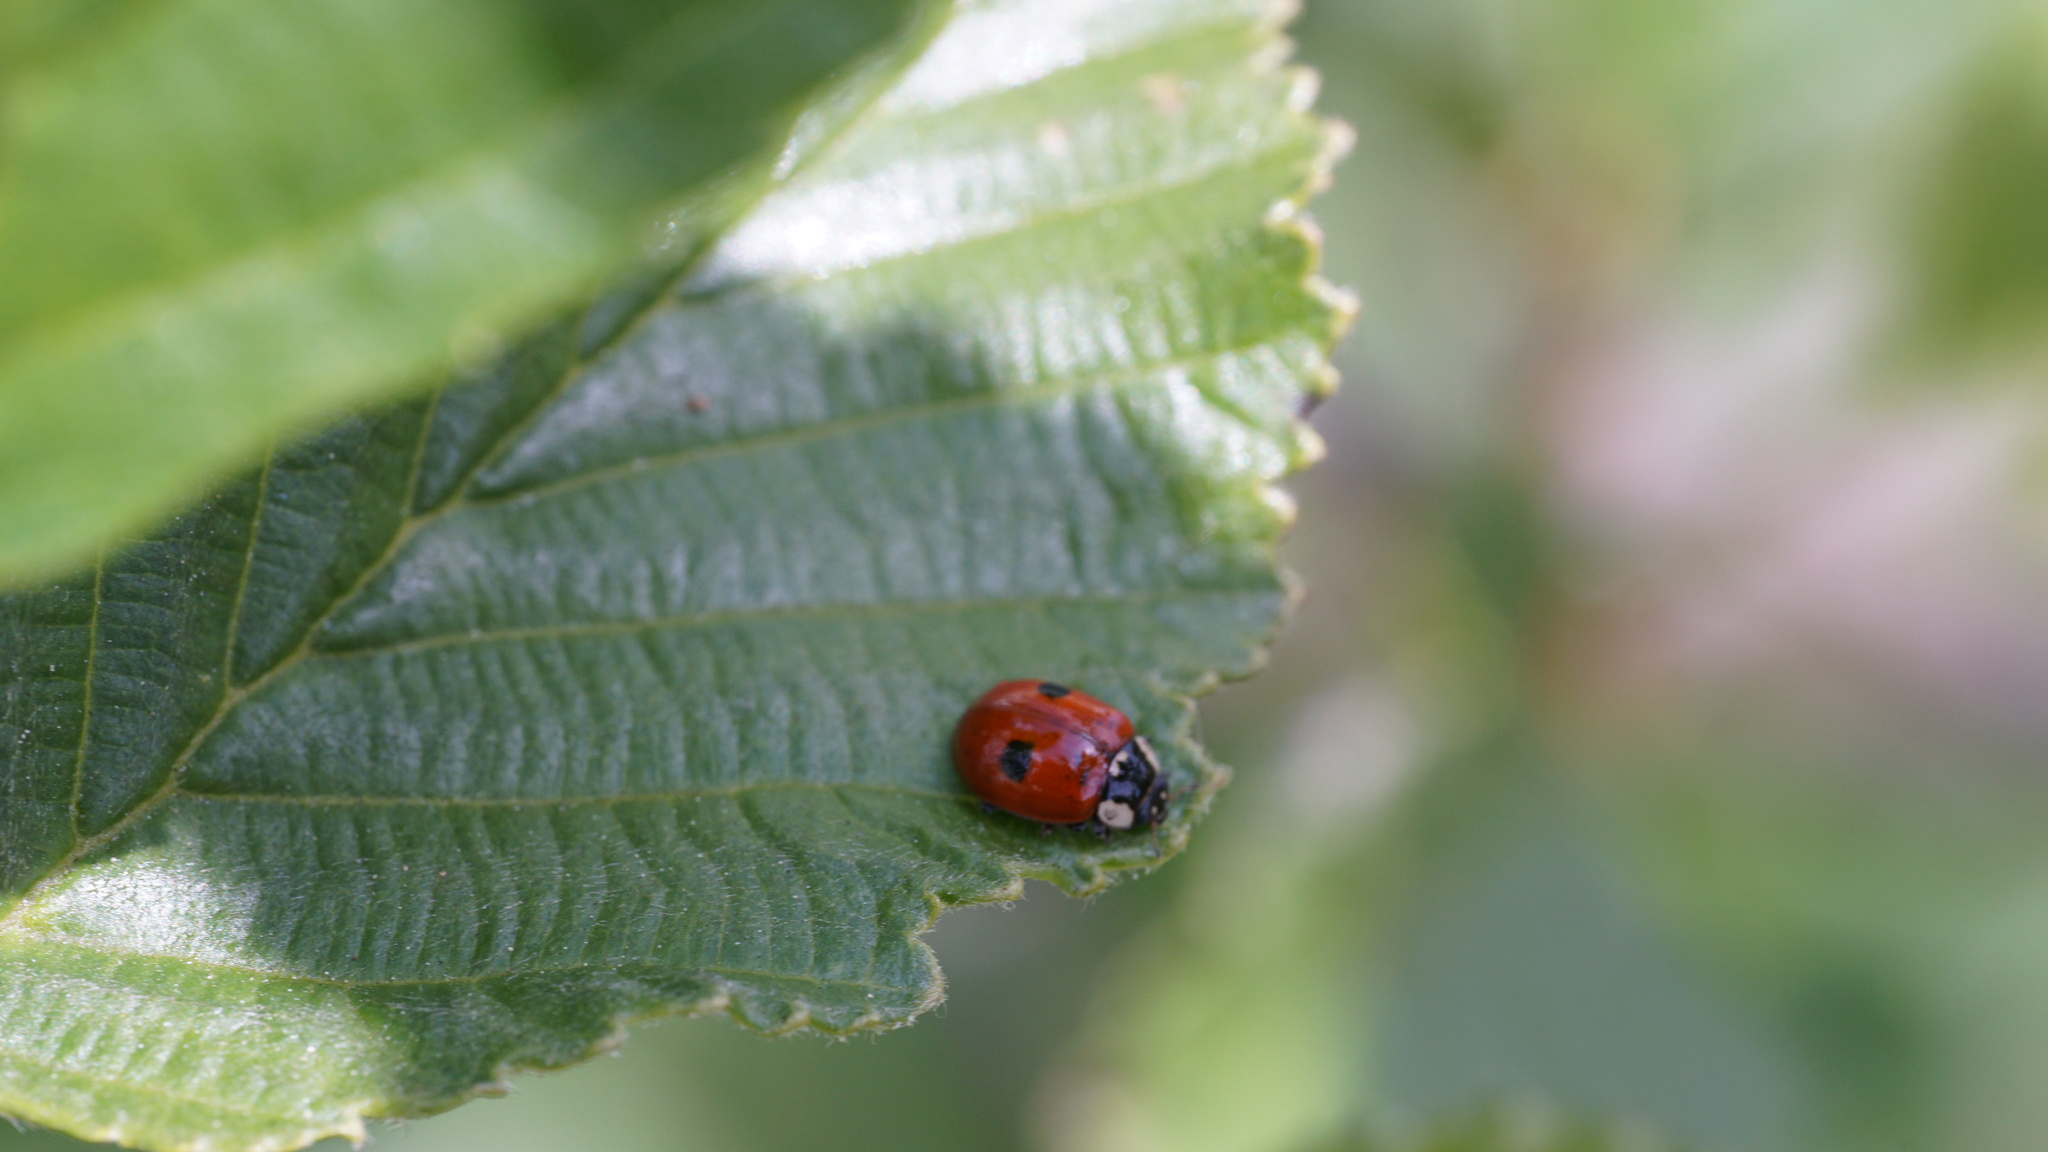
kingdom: Animalia
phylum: Arthropoda
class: Insecta
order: Coleoptera
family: Coccinellidae
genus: Adalia
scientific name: Adalia bipunctata
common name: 2-spot ladybird
